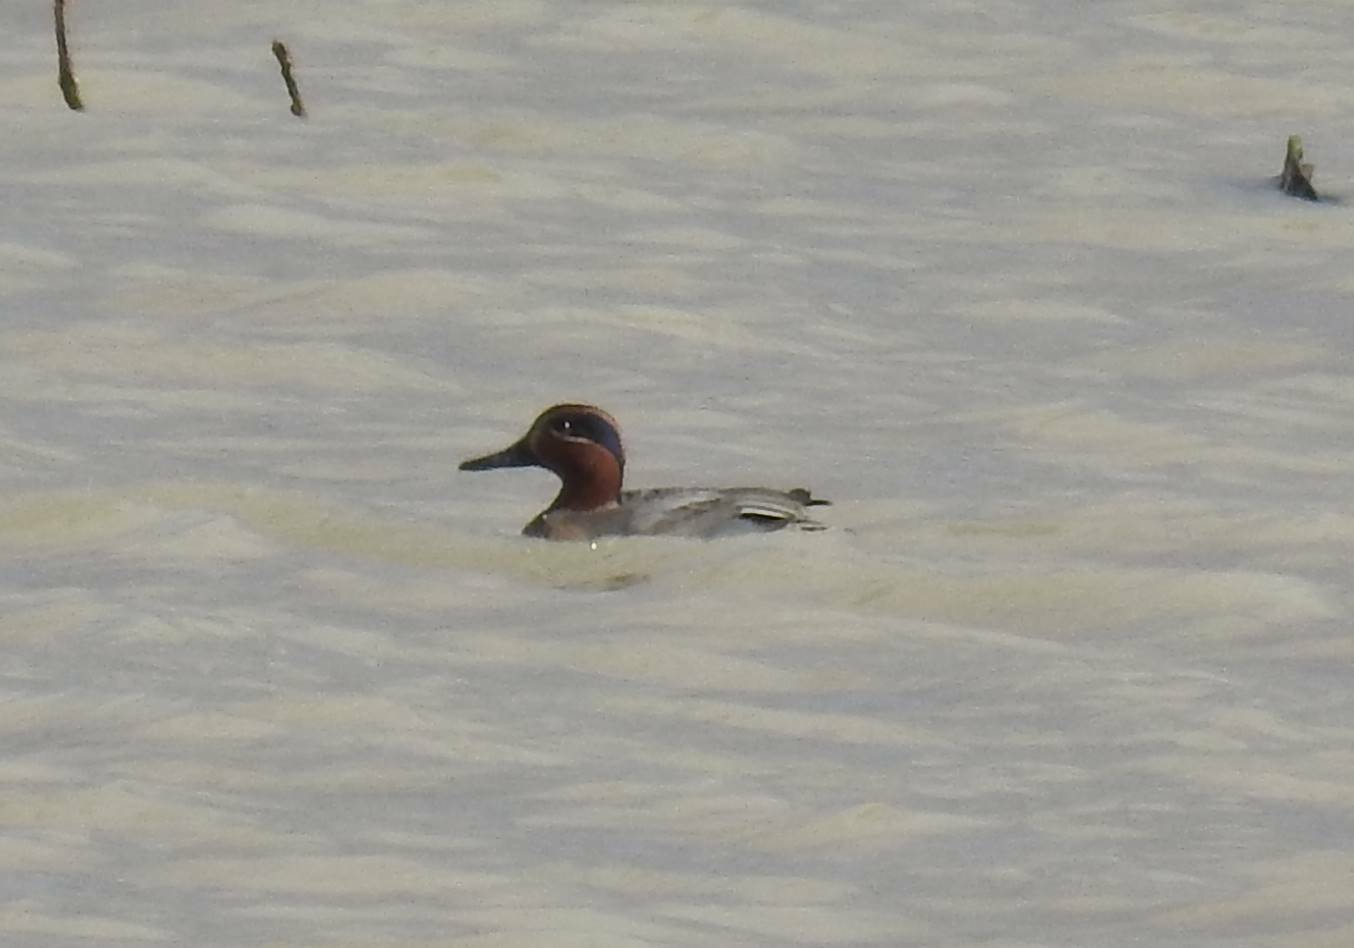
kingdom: Animalia
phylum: Chordata
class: Aves
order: Anseriformes
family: Anatidae
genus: Anas
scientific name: Anas crecca
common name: Eurasian teal
